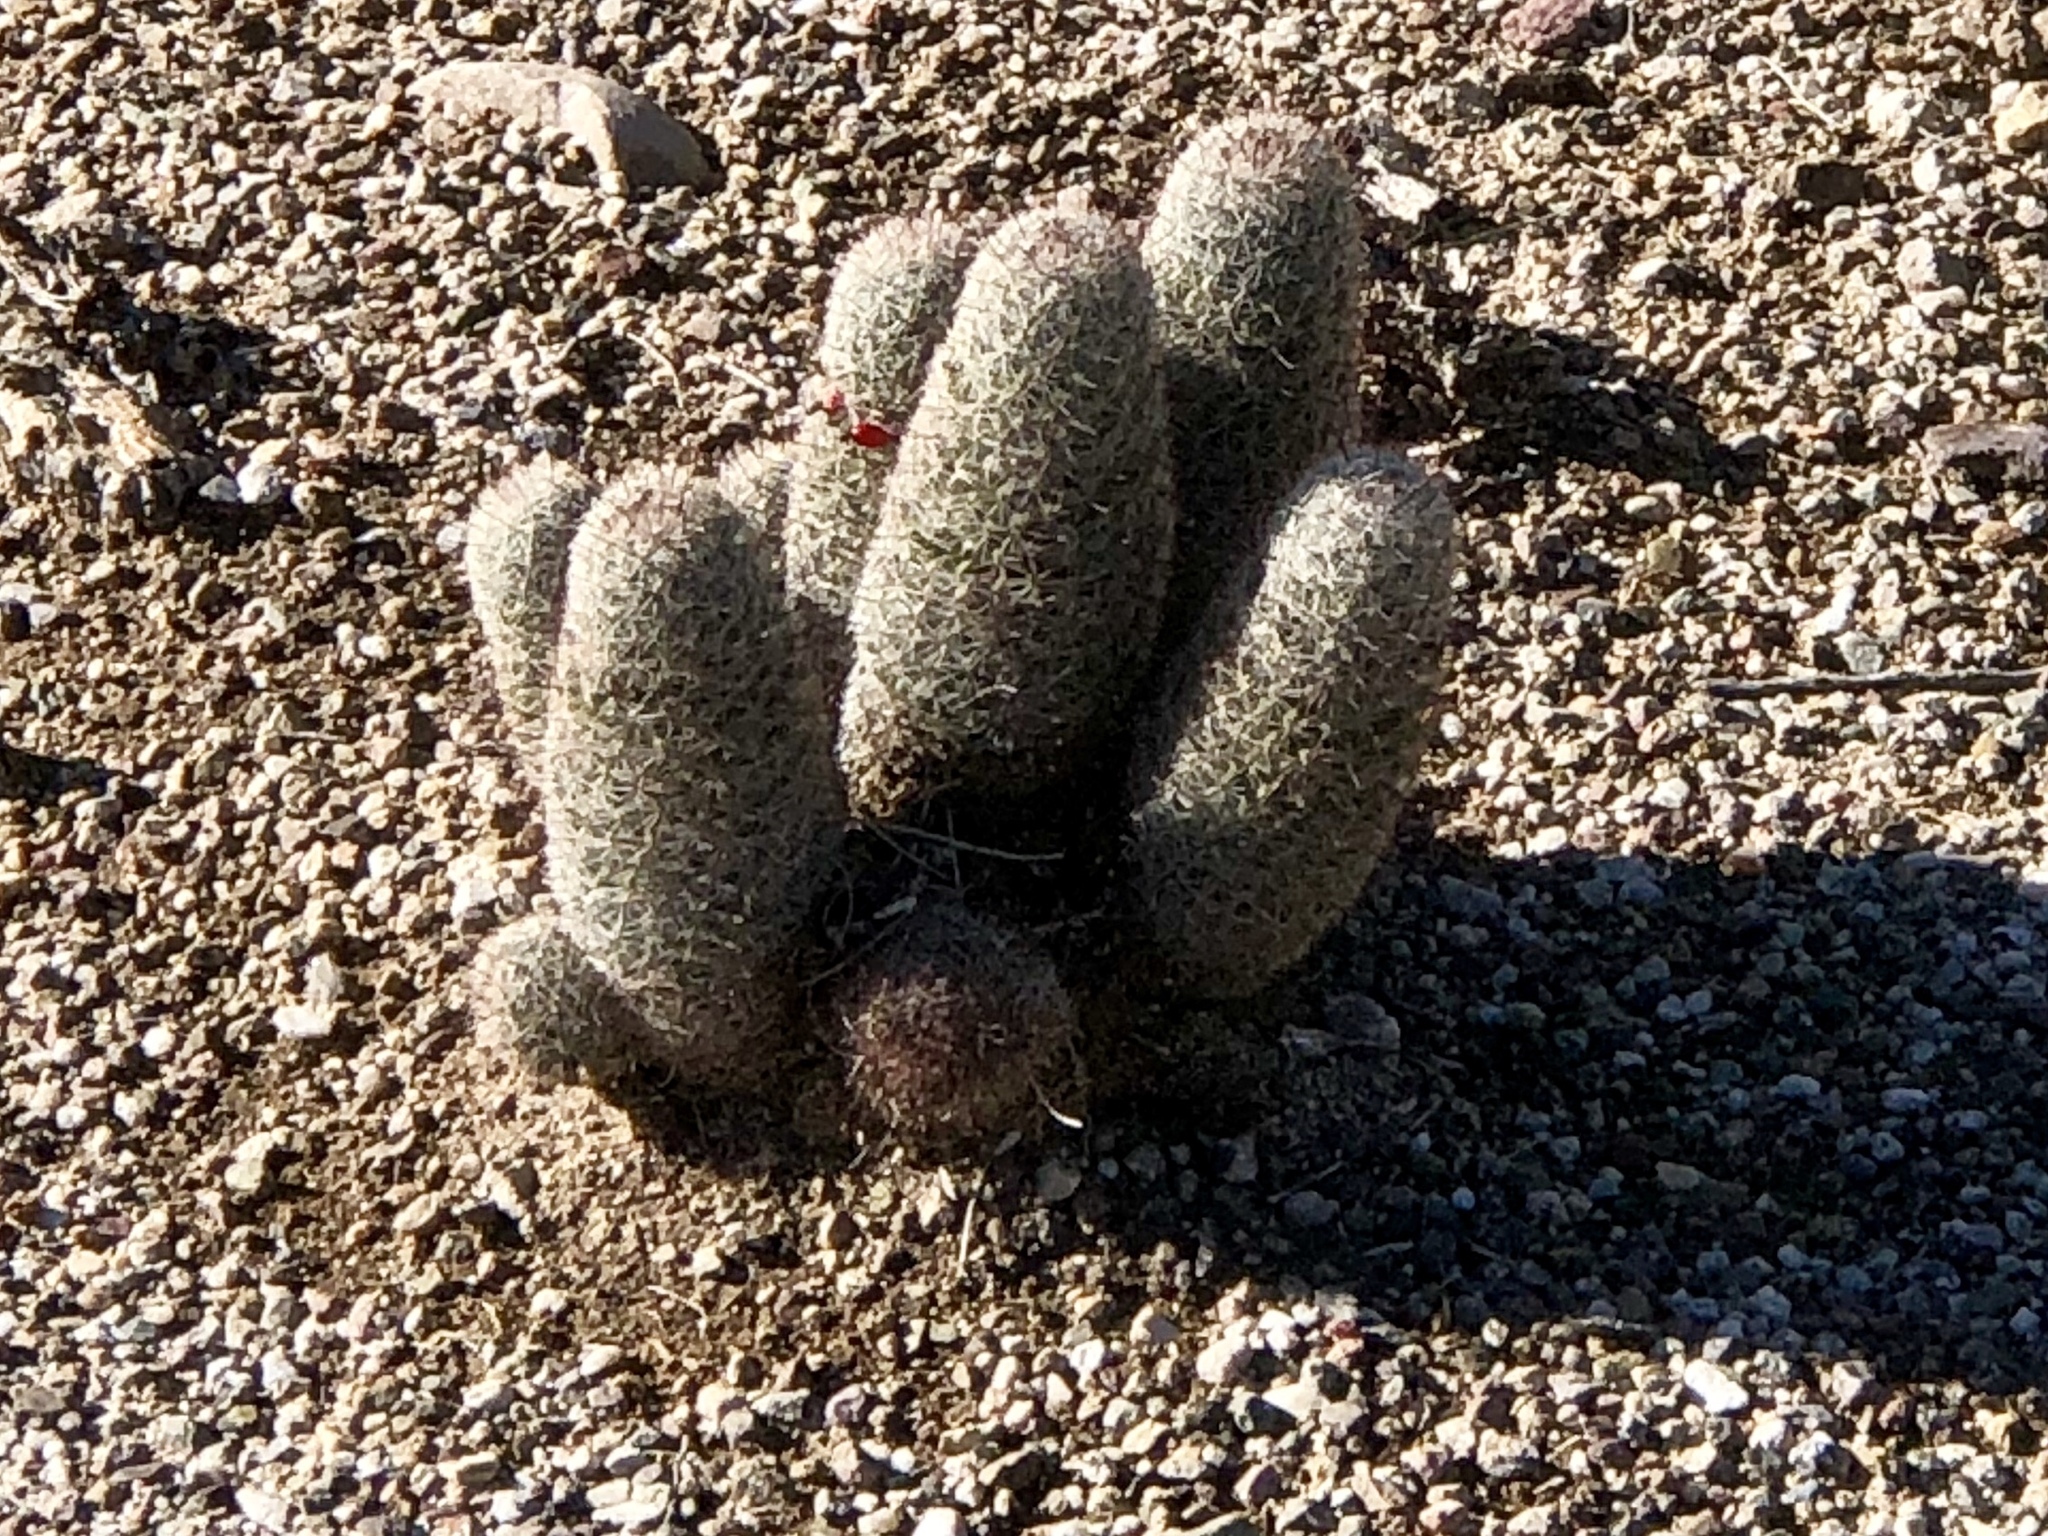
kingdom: Plantae
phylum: Tracheophyta
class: Magnoliopsida
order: Caryophyllales
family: Cactaceae
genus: Cochemiea
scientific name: Cochemiea grahamii
